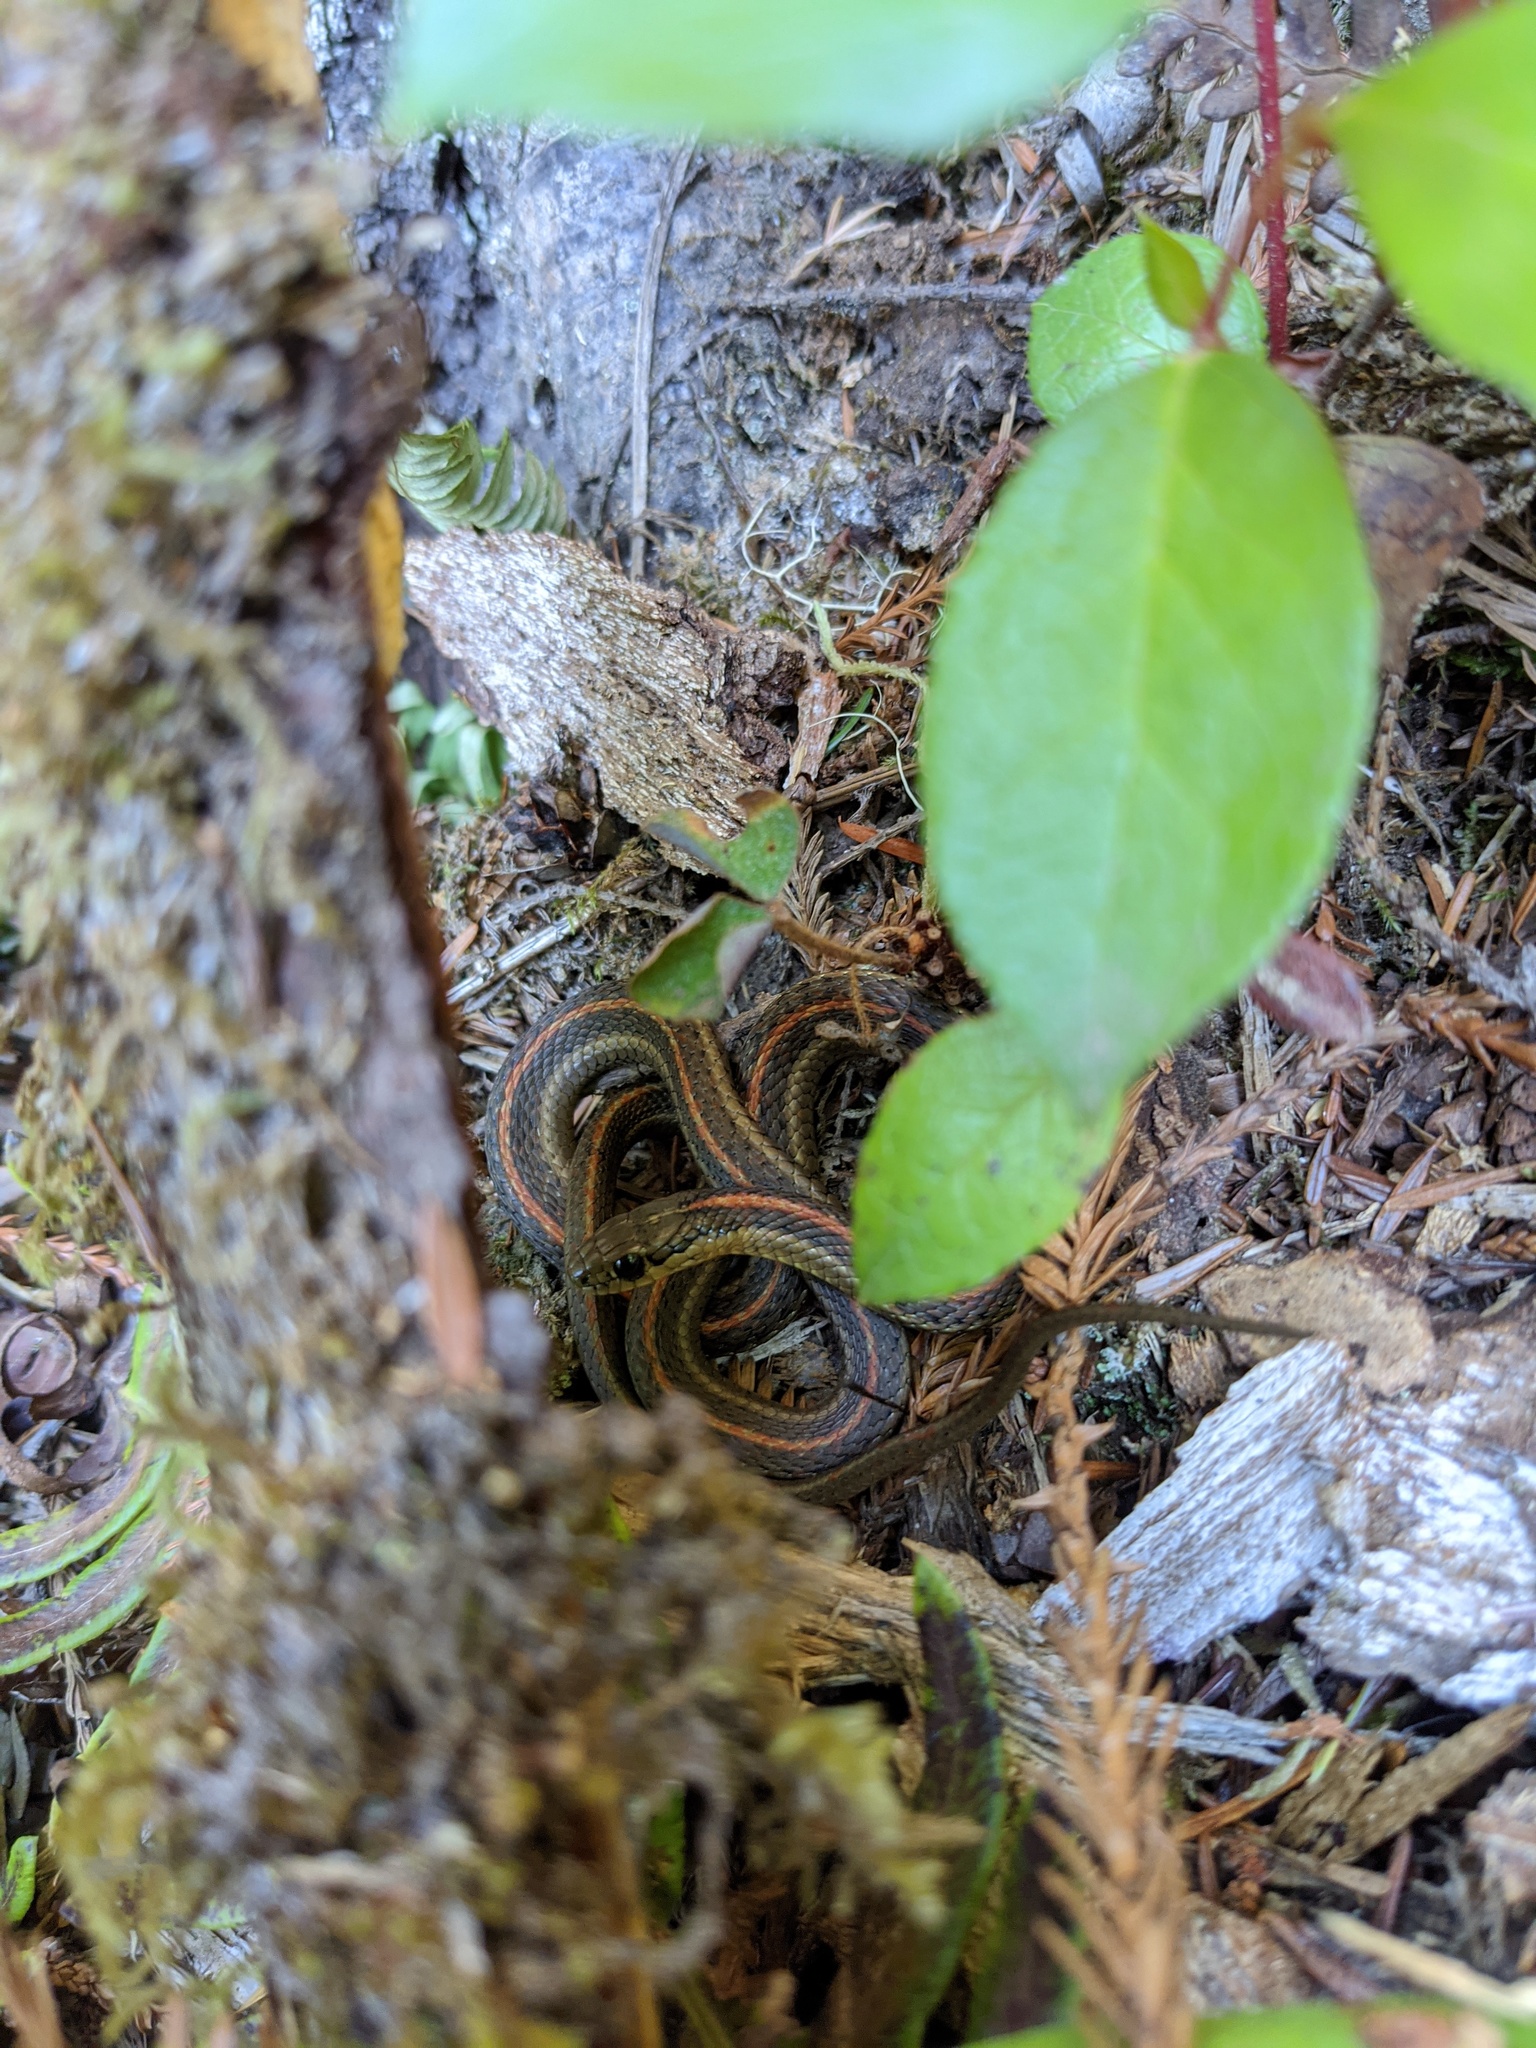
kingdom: Animalia
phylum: Chordata
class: Squamata
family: Colubridae
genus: Thamnophis
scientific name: Thamnophis ordinoides
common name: Northwestern garter snake
